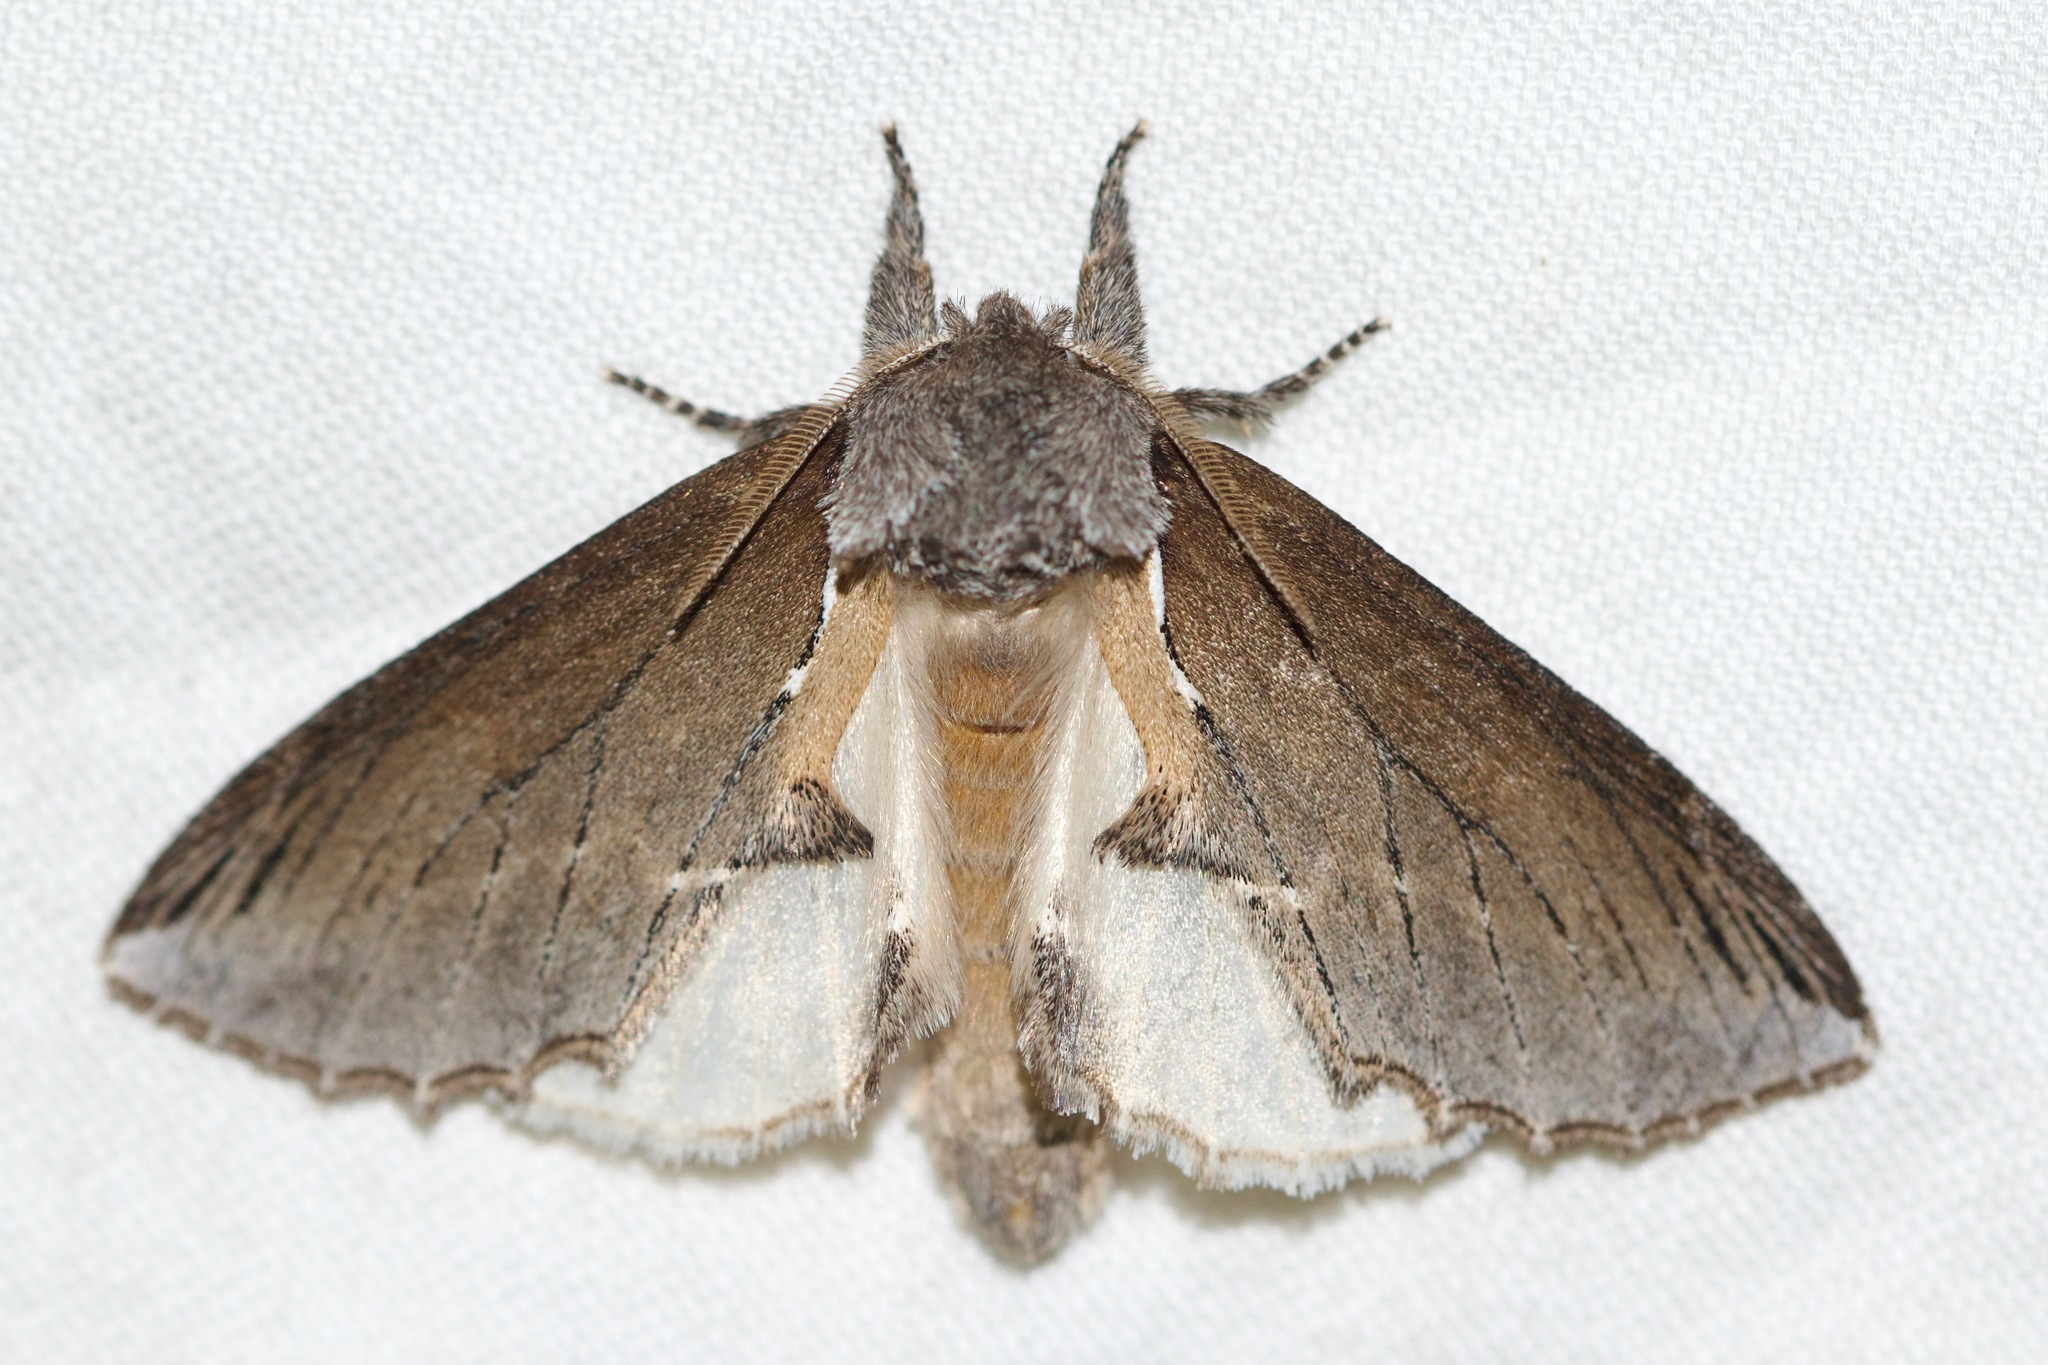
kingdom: Animalia
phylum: Arthropoda
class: Insecta
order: Lepidoptera
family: Notodontidae
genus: Pheosidea
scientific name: Pheosidea elegans
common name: Elegant prominent
